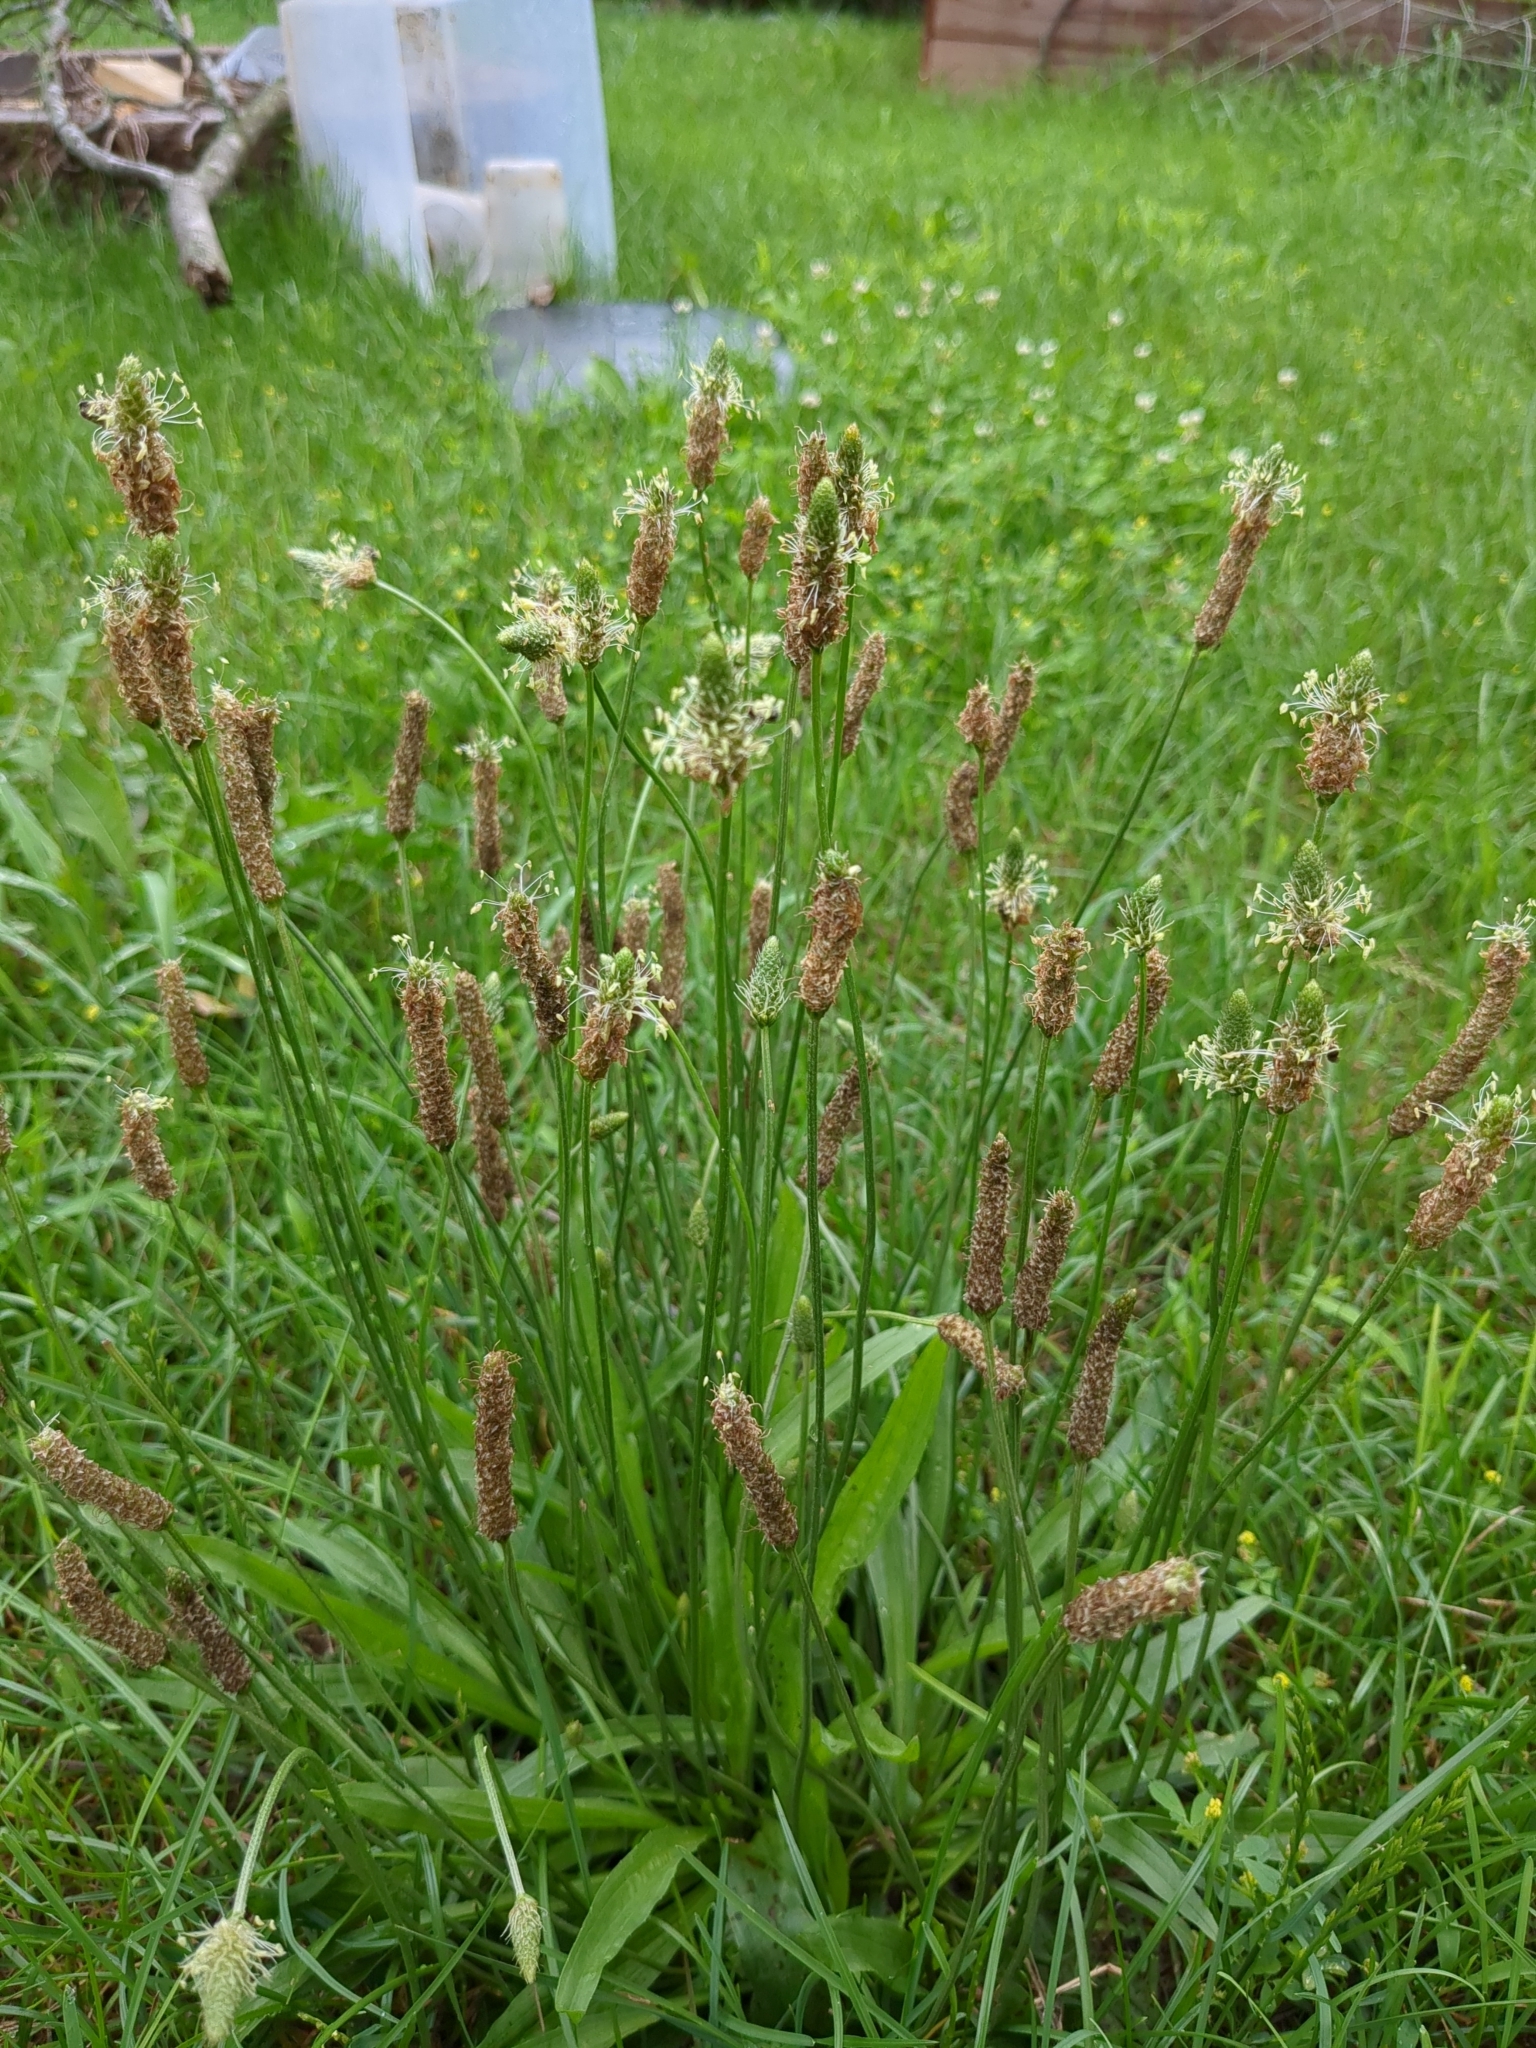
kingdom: Plantae
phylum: Tracheophyta
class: Magnoliopsida
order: Lamiales
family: Plantaginaceae
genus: Plantago
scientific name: Plantago lanceolata
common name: Ribwort plantain
